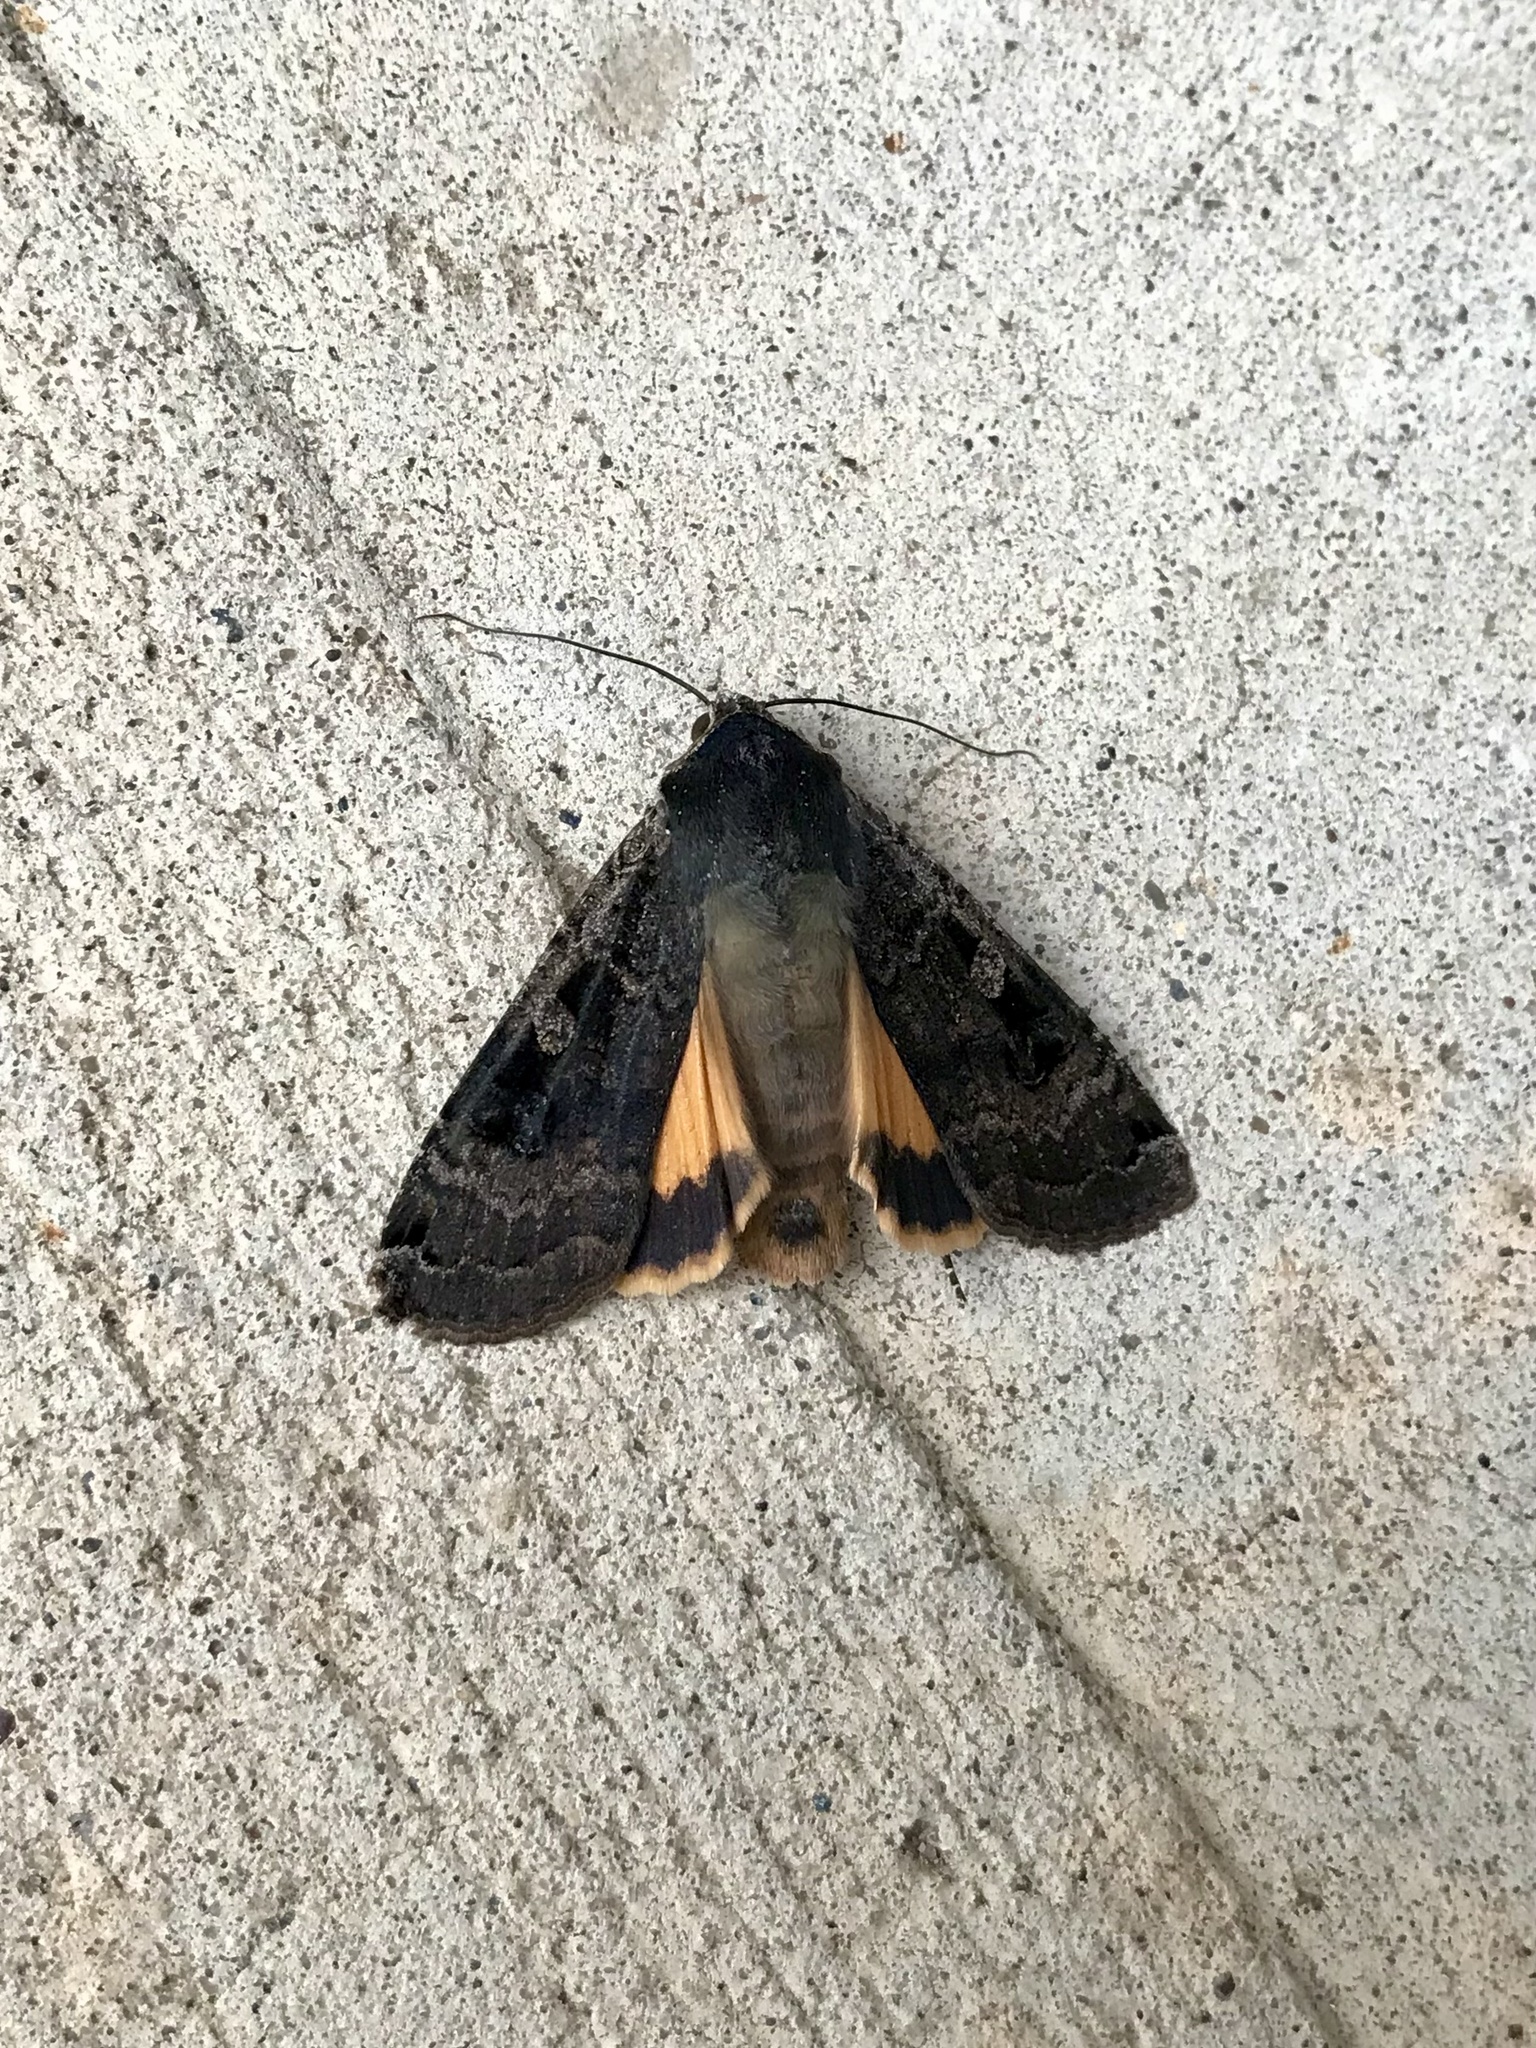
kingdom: Animalia
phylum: Arthropoda
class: Insecta
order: Lepidoptera
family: Noctuidae
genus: Noctua
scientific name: Noctua pronuba
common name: Large yellow underwing
